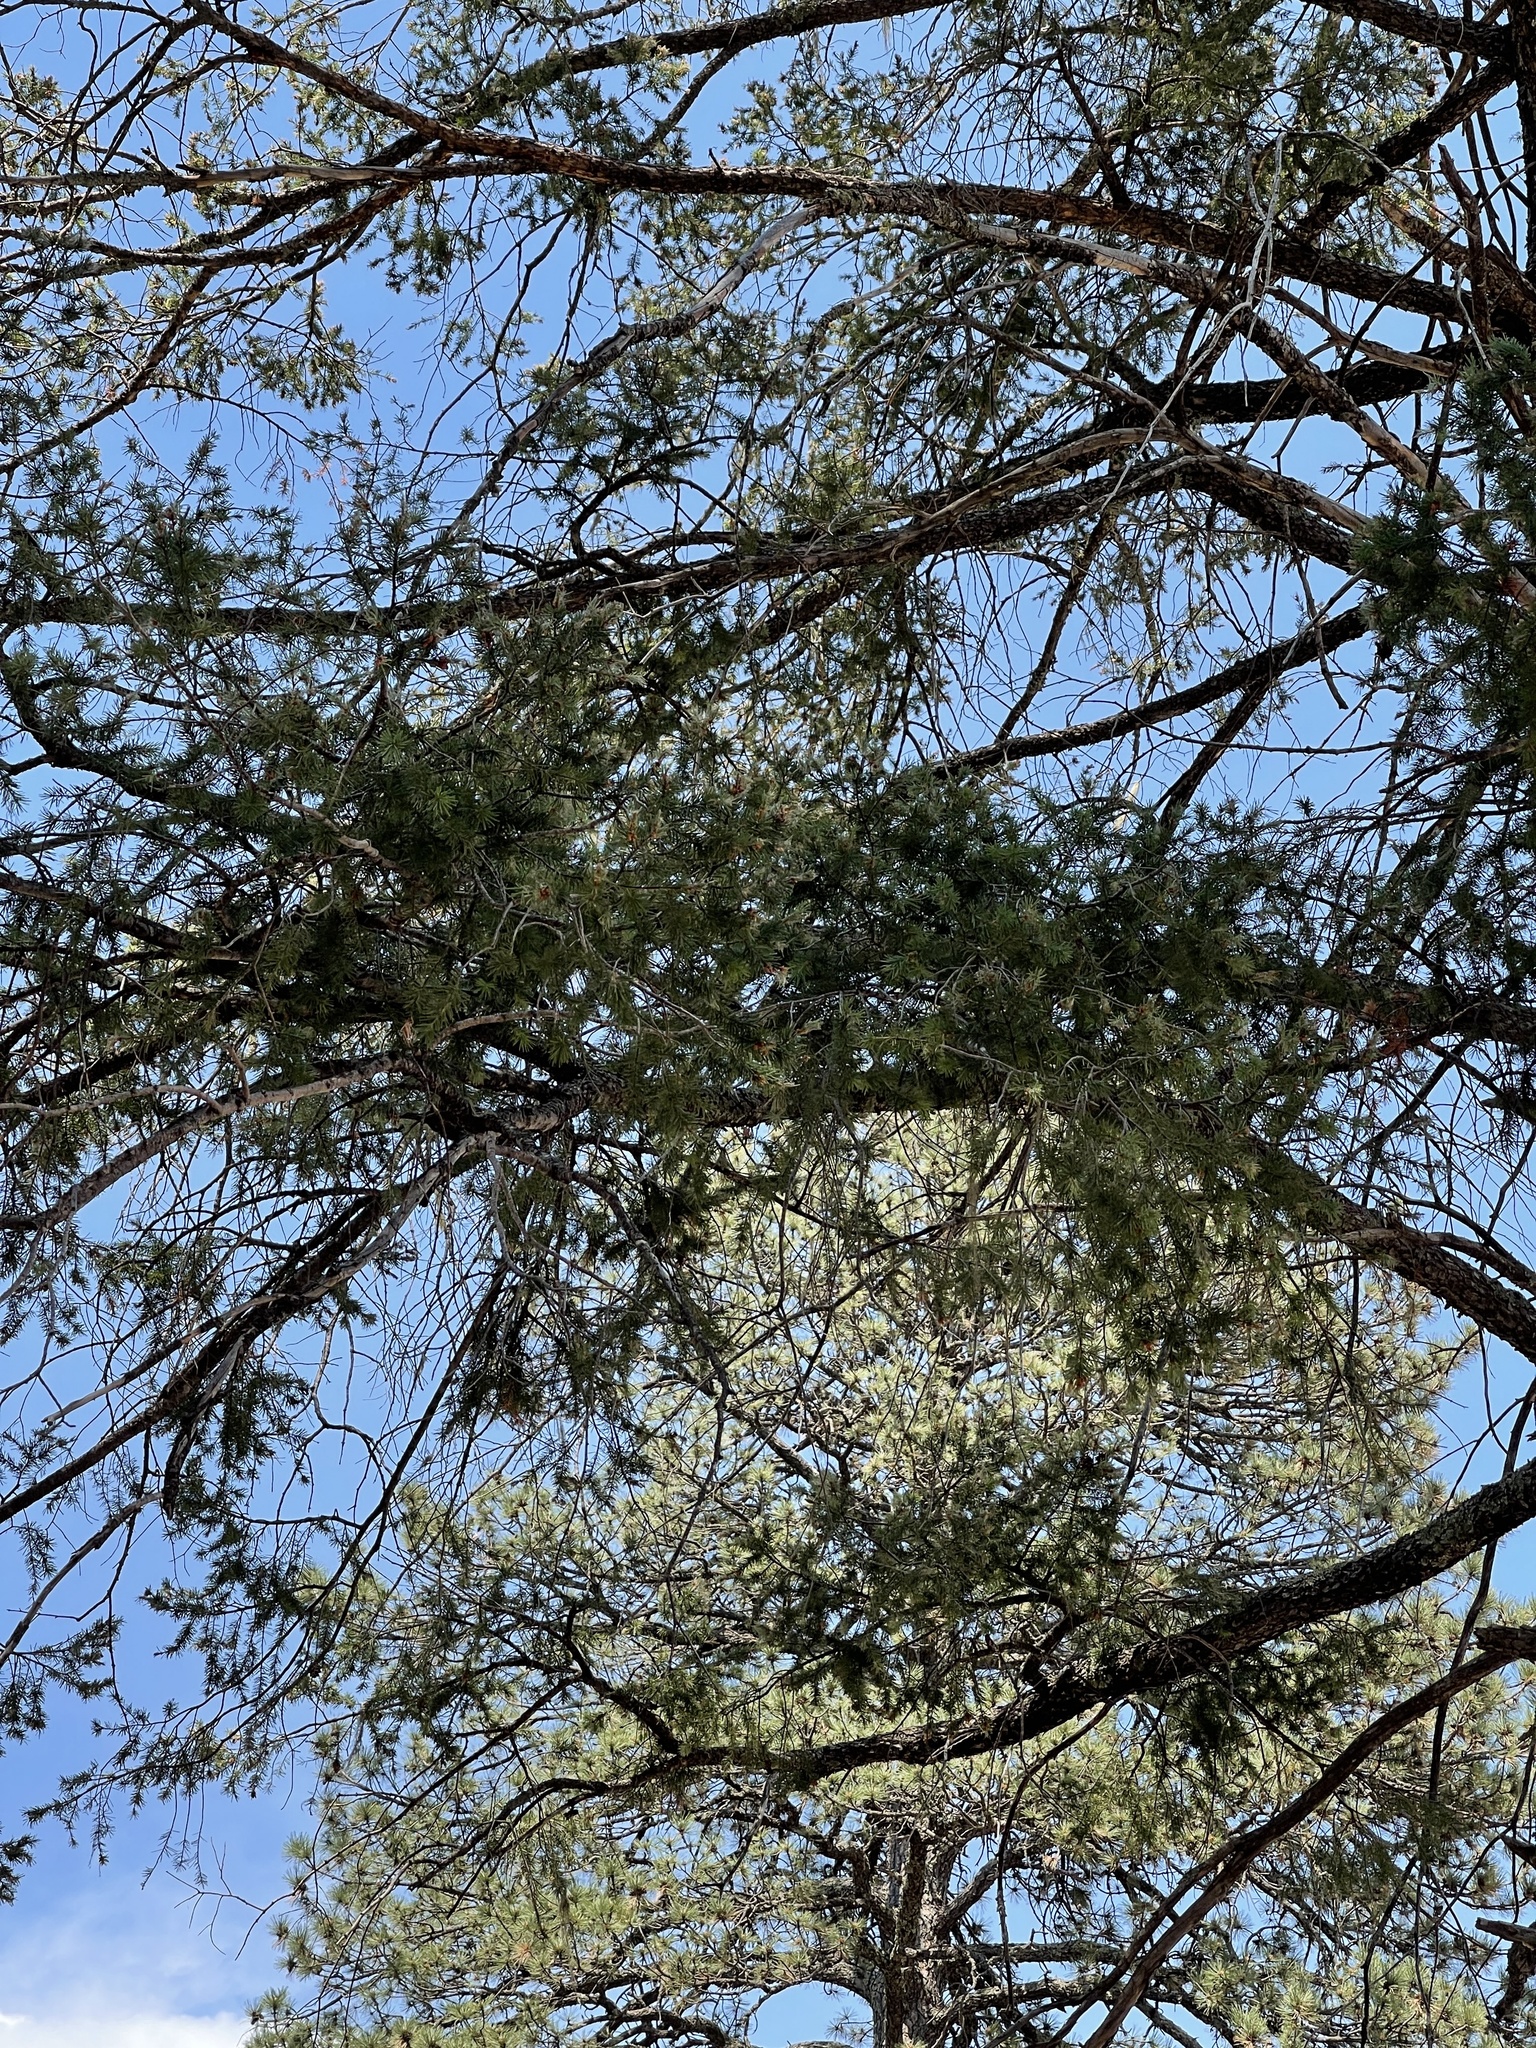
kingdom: Plantae
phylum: Tracheophyta
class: Pinopsida
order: Pinales
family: Pinaceae
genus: Pseudotsuga
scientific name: Pseudotsuga menziesii
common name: Douglas fir
